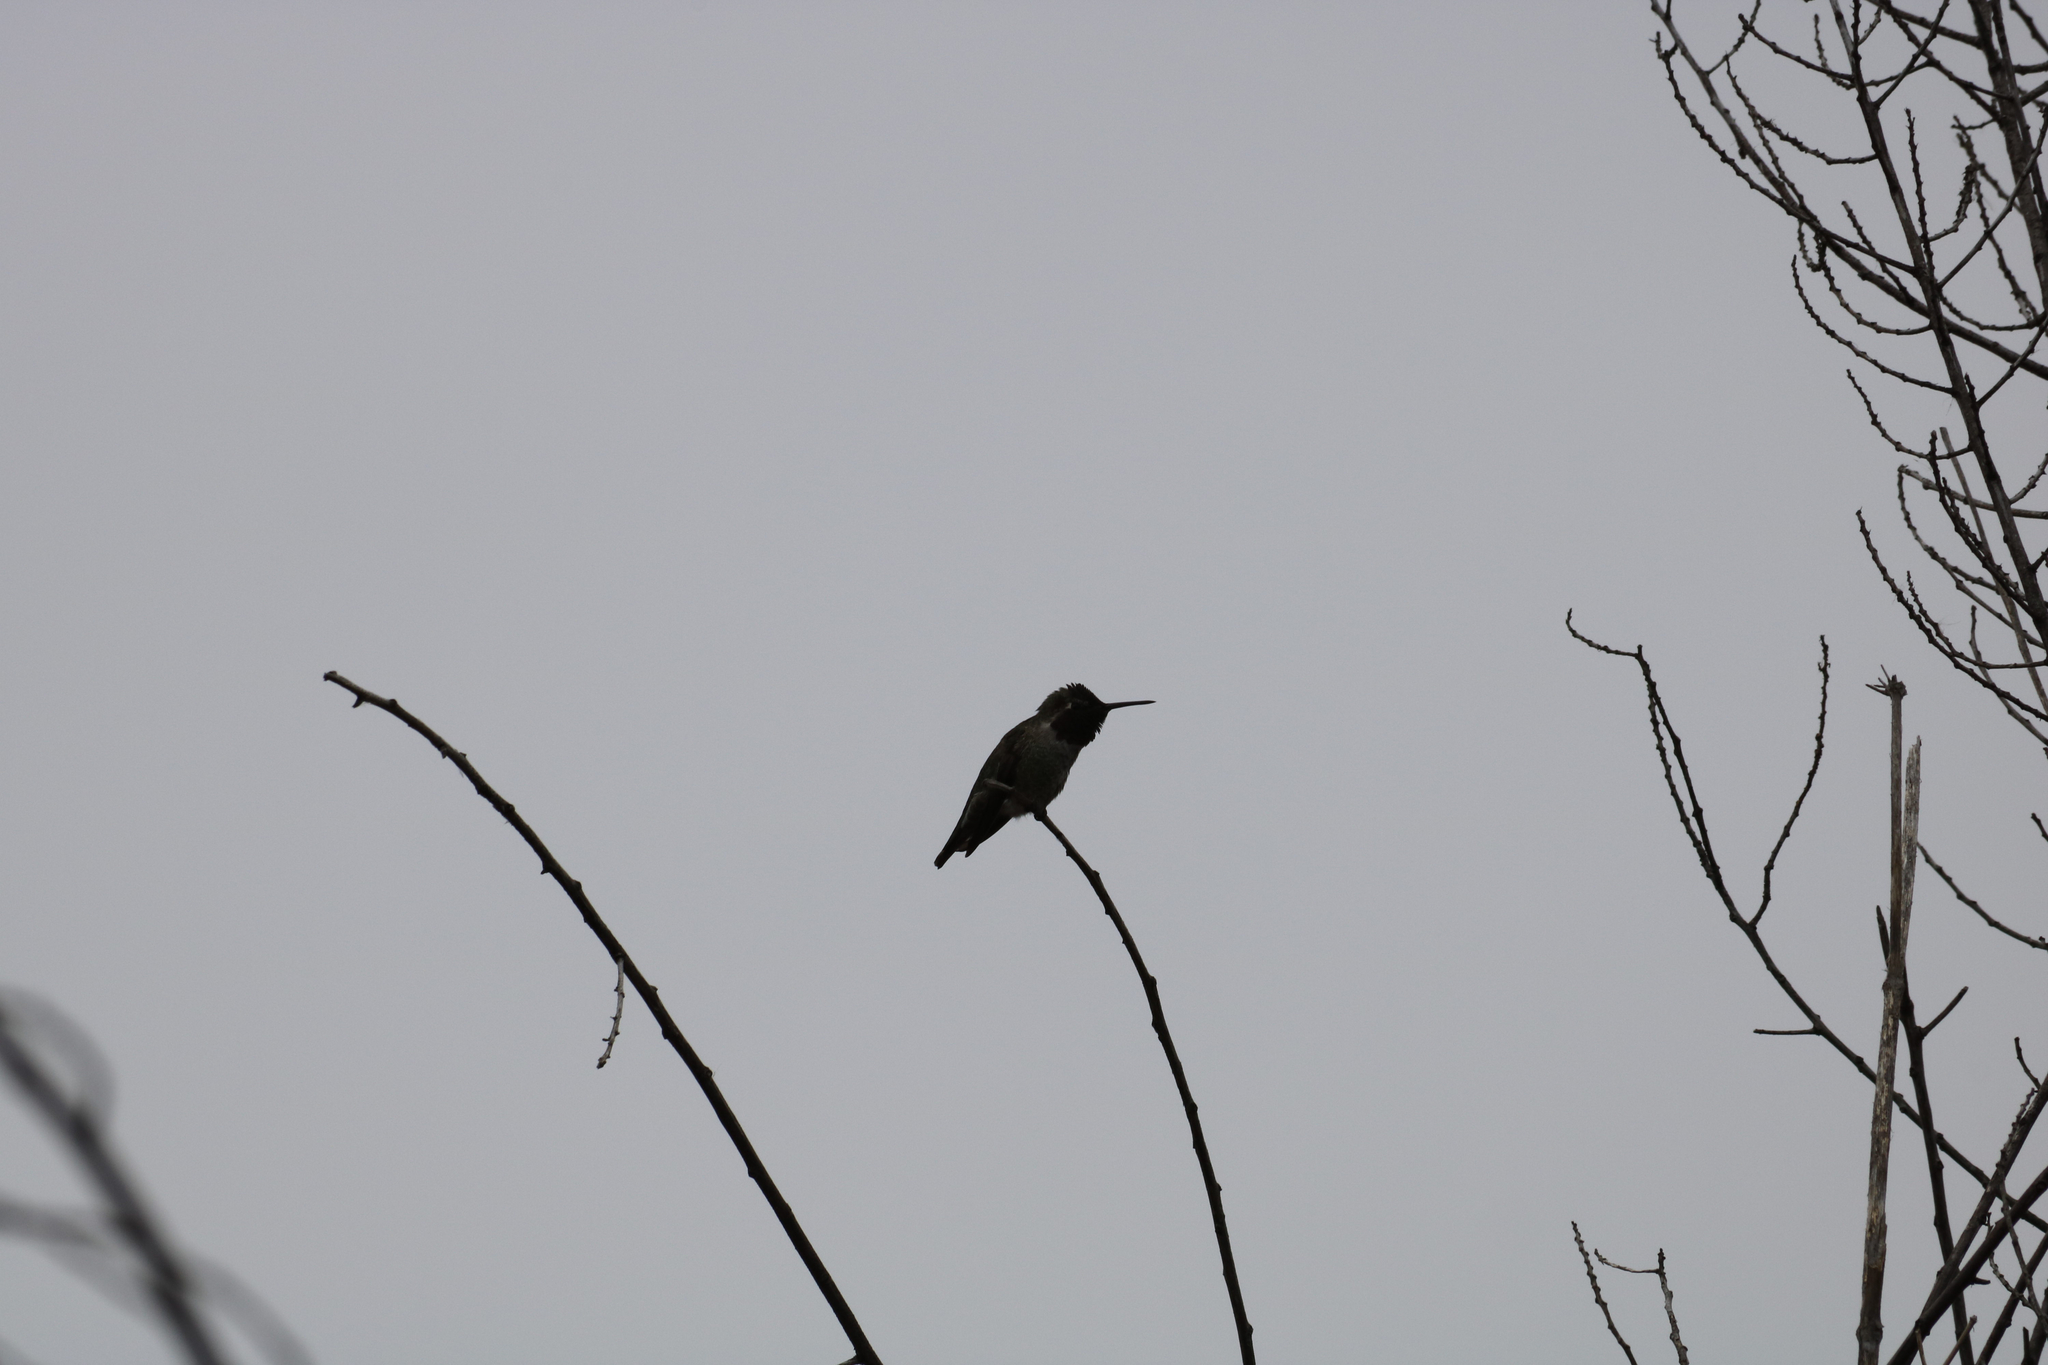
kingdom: Animalia
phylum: Chordata
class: Aves
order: Apodiformes
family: Trochilidae
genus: Calypte
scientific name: Calypte anna
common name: Anna's hummingbird
